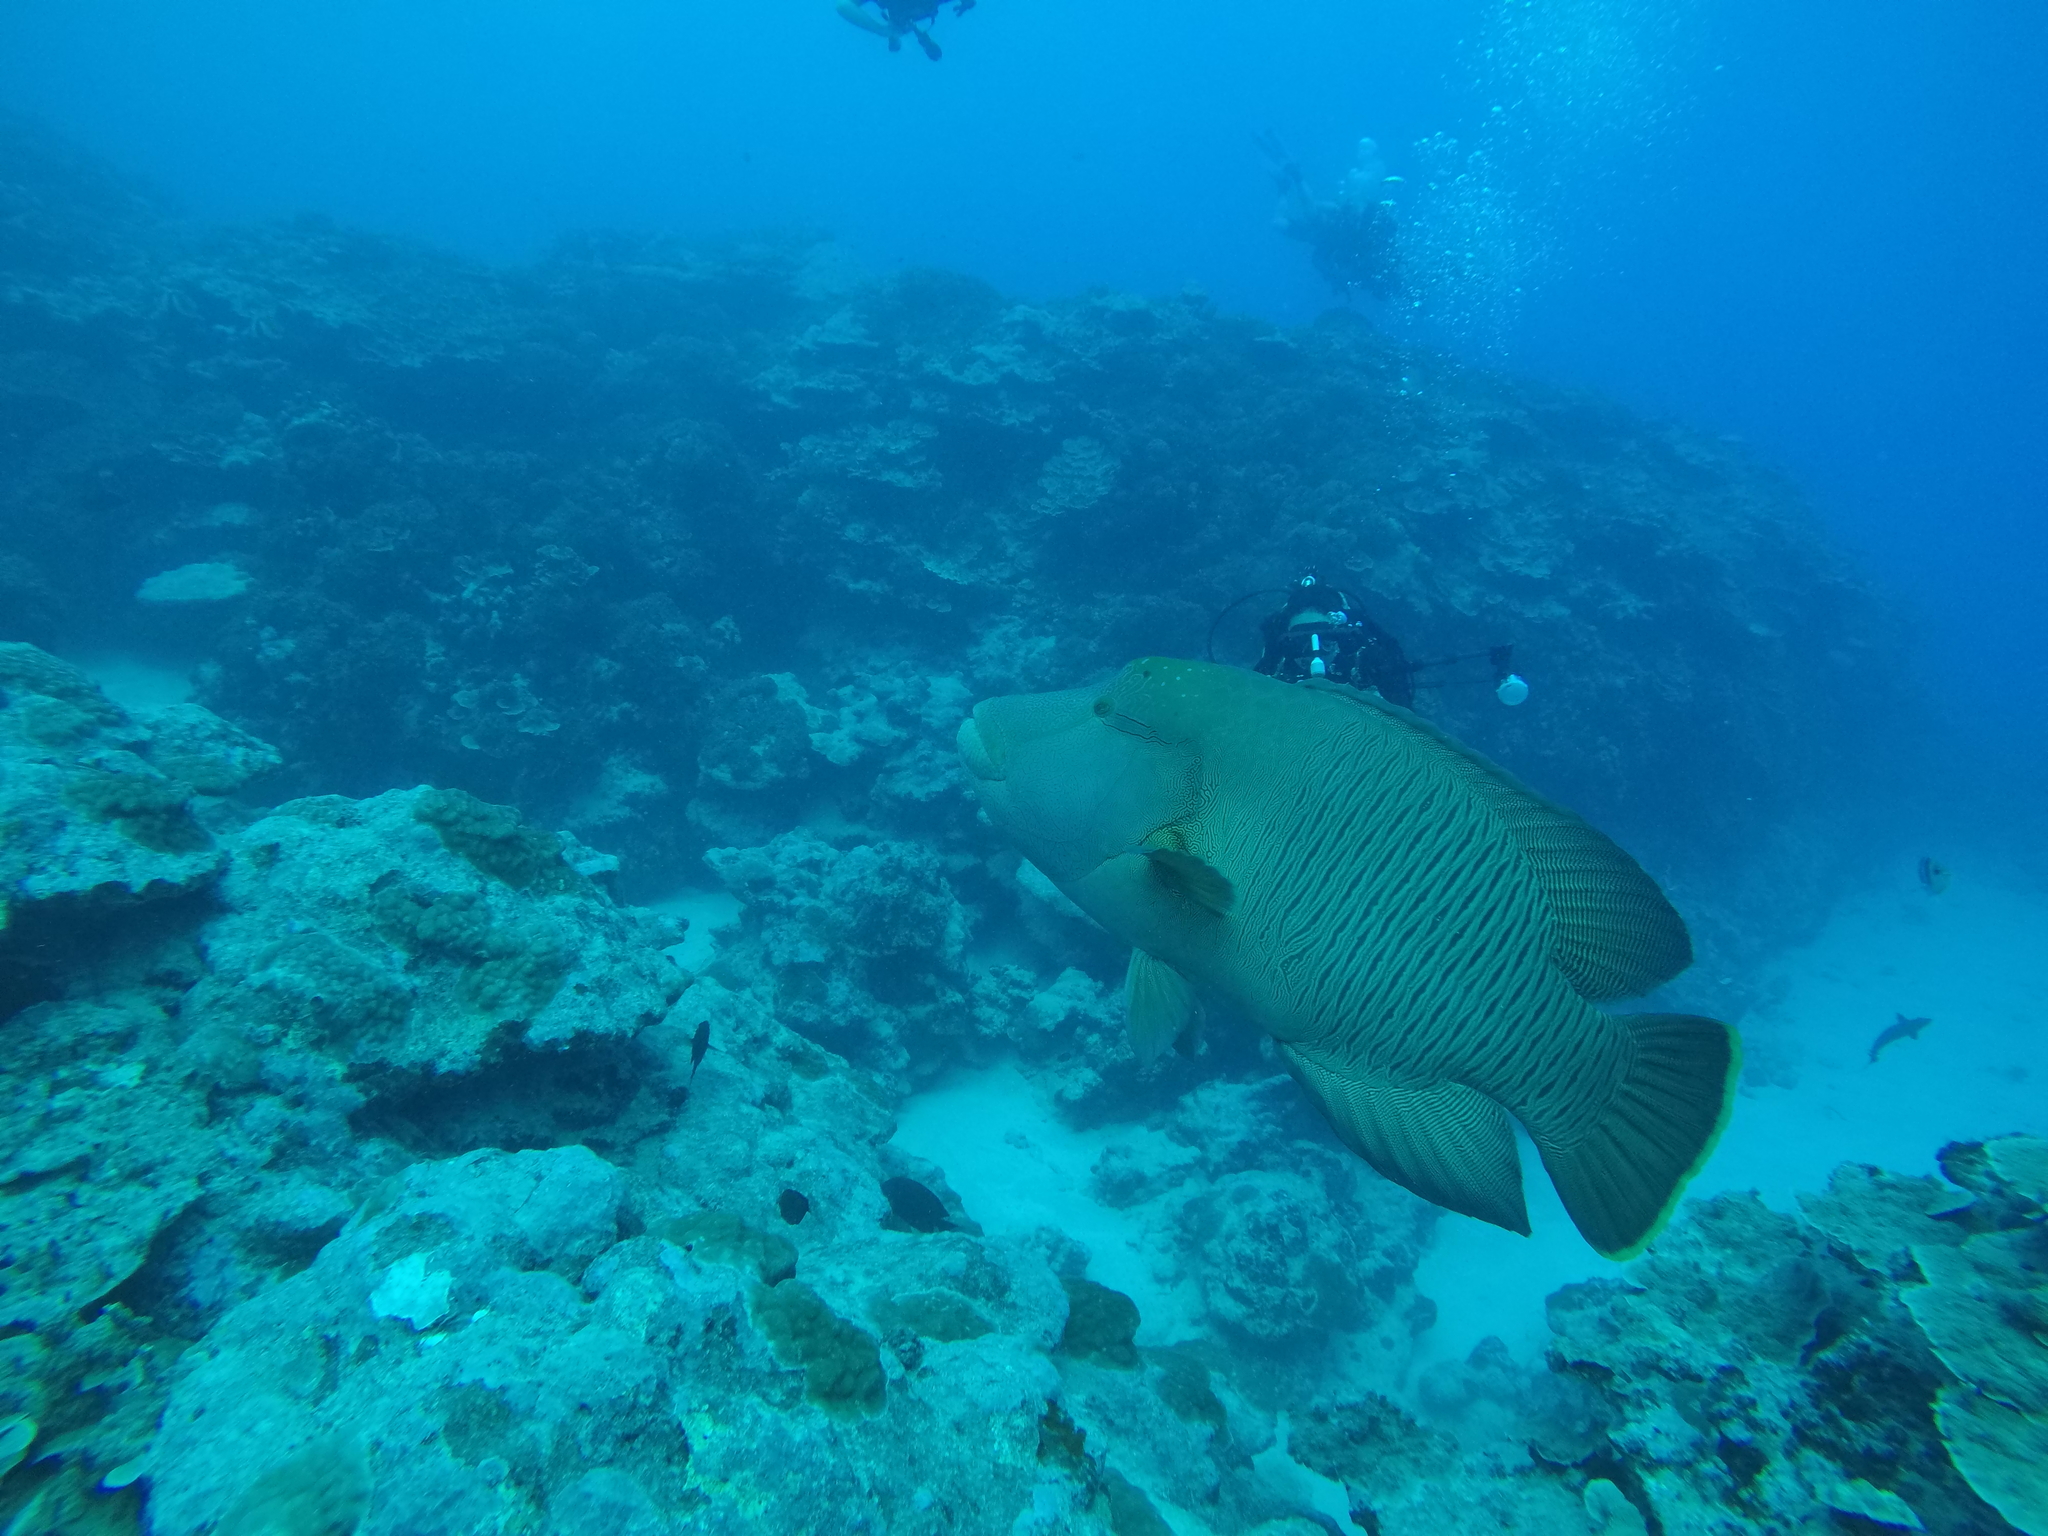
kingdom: Animalia
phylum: Chordata
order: Perciformes
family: Labridae
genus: Cheilinus
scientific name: Cheilinus undulatus
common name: Humphead wrasse
